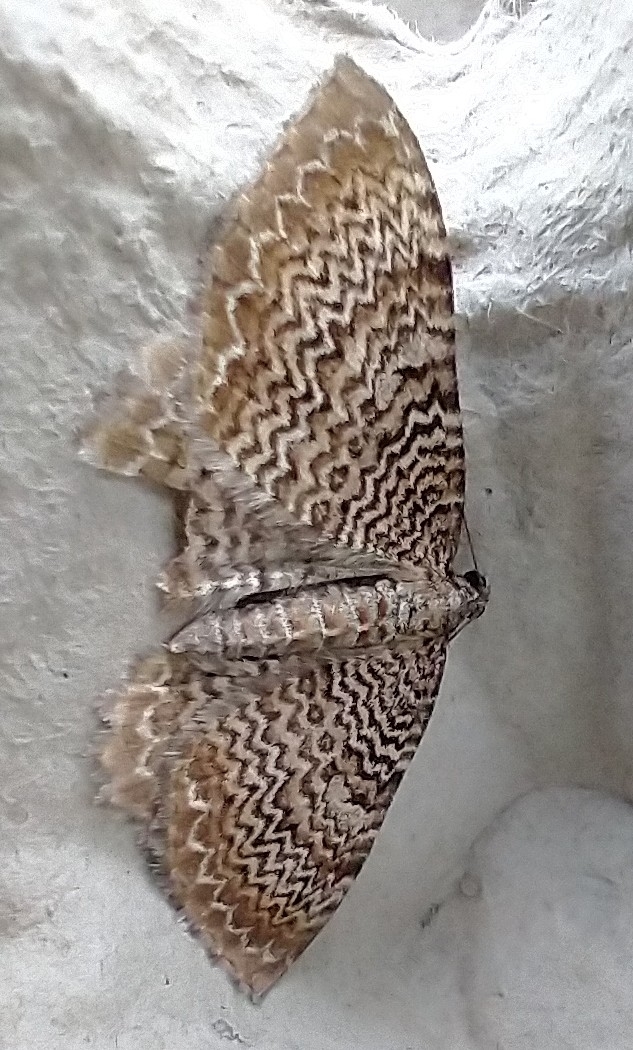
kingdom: Animalia
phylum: Arthropoda
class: Insecta
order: Lepidoptera
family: Geometridae
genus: Rheumaptera
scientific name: Rheumaptera undulata
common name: Scallop shell
